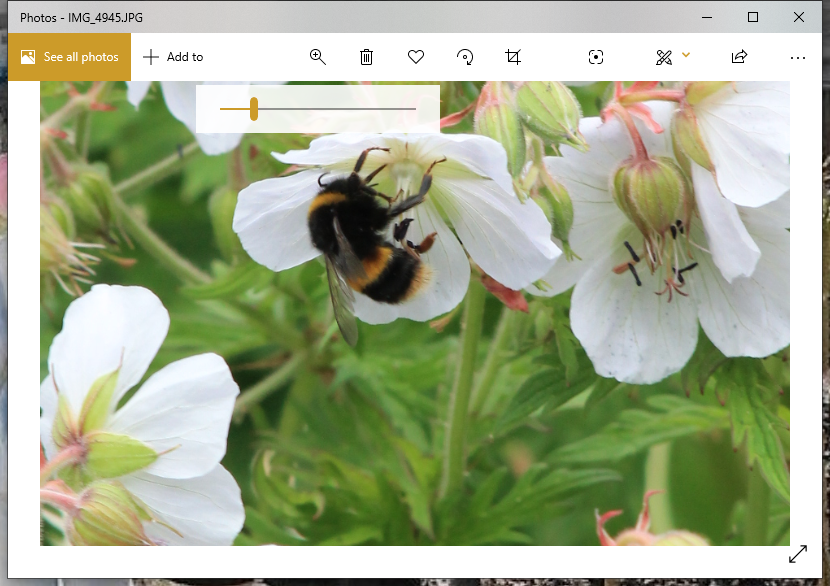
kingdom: Animalia
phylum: Arthropoda
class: Insecta
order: Hymenoptera
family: Apidae
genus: Bombus
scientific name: Bombus terrestris
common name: Buff-tailed bumblebee
